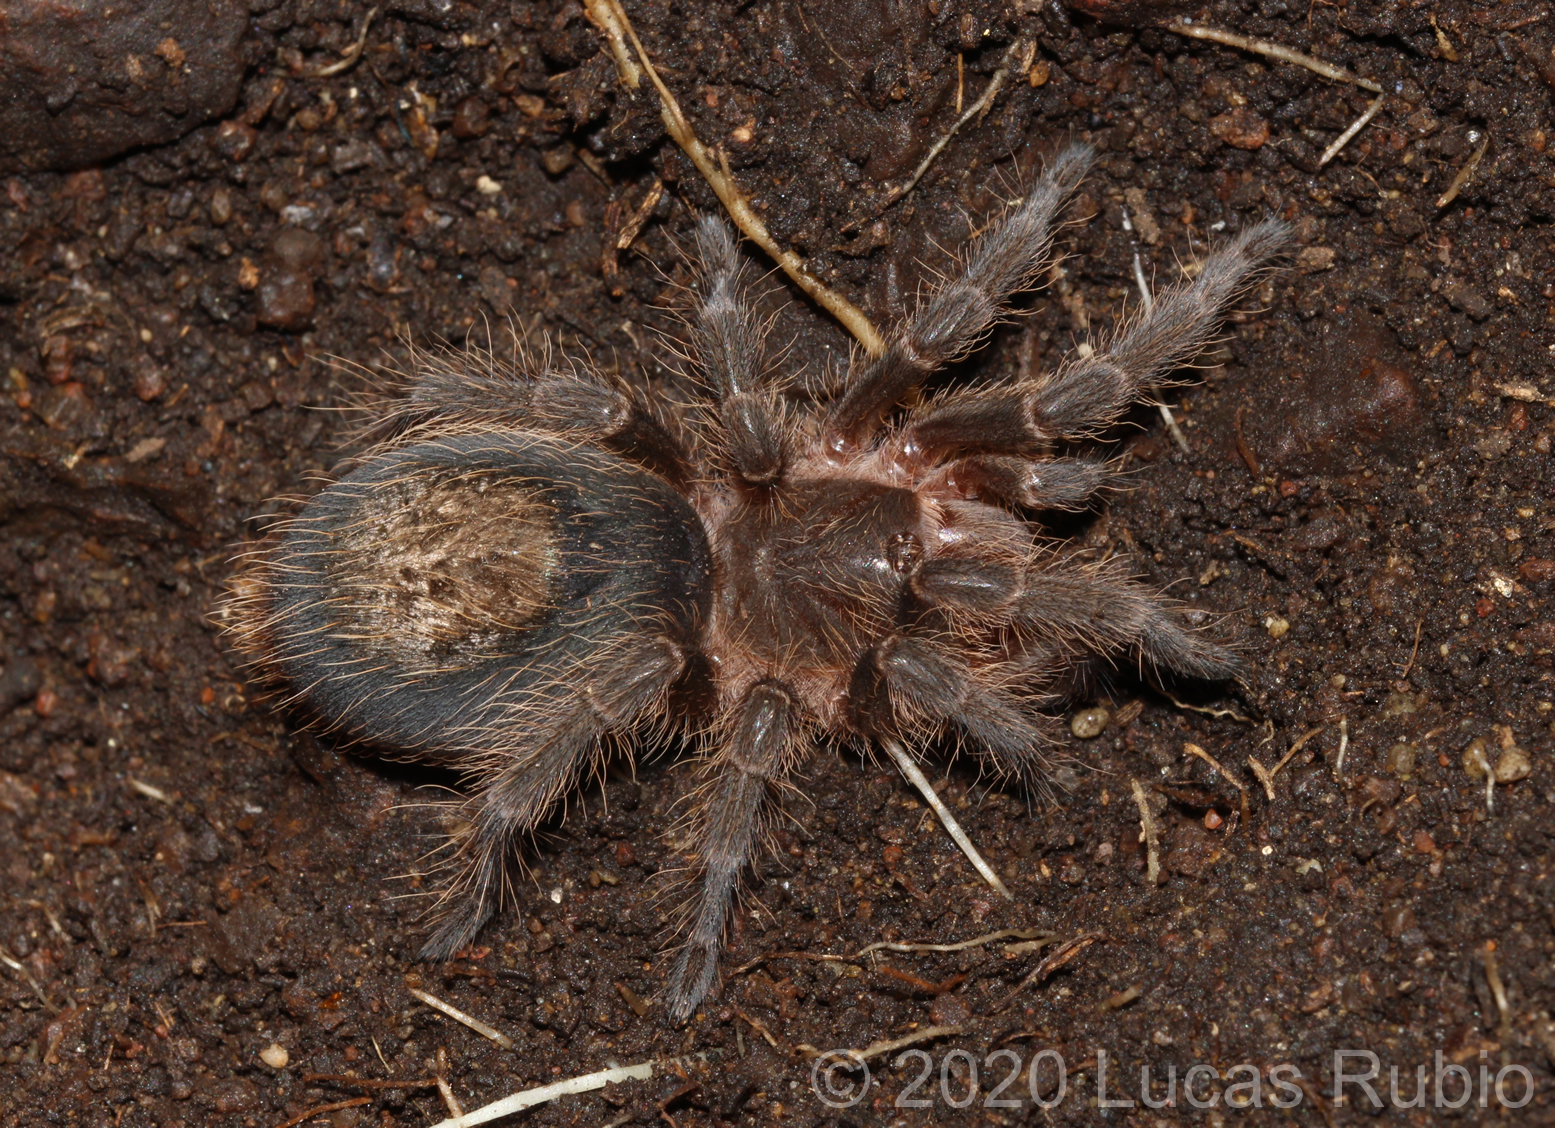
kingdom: Animalia
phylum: Arthropoda
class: Arachnida
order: Araneae
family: Theraphosidae
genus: Grammostola
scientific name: Grammostola vachoni
